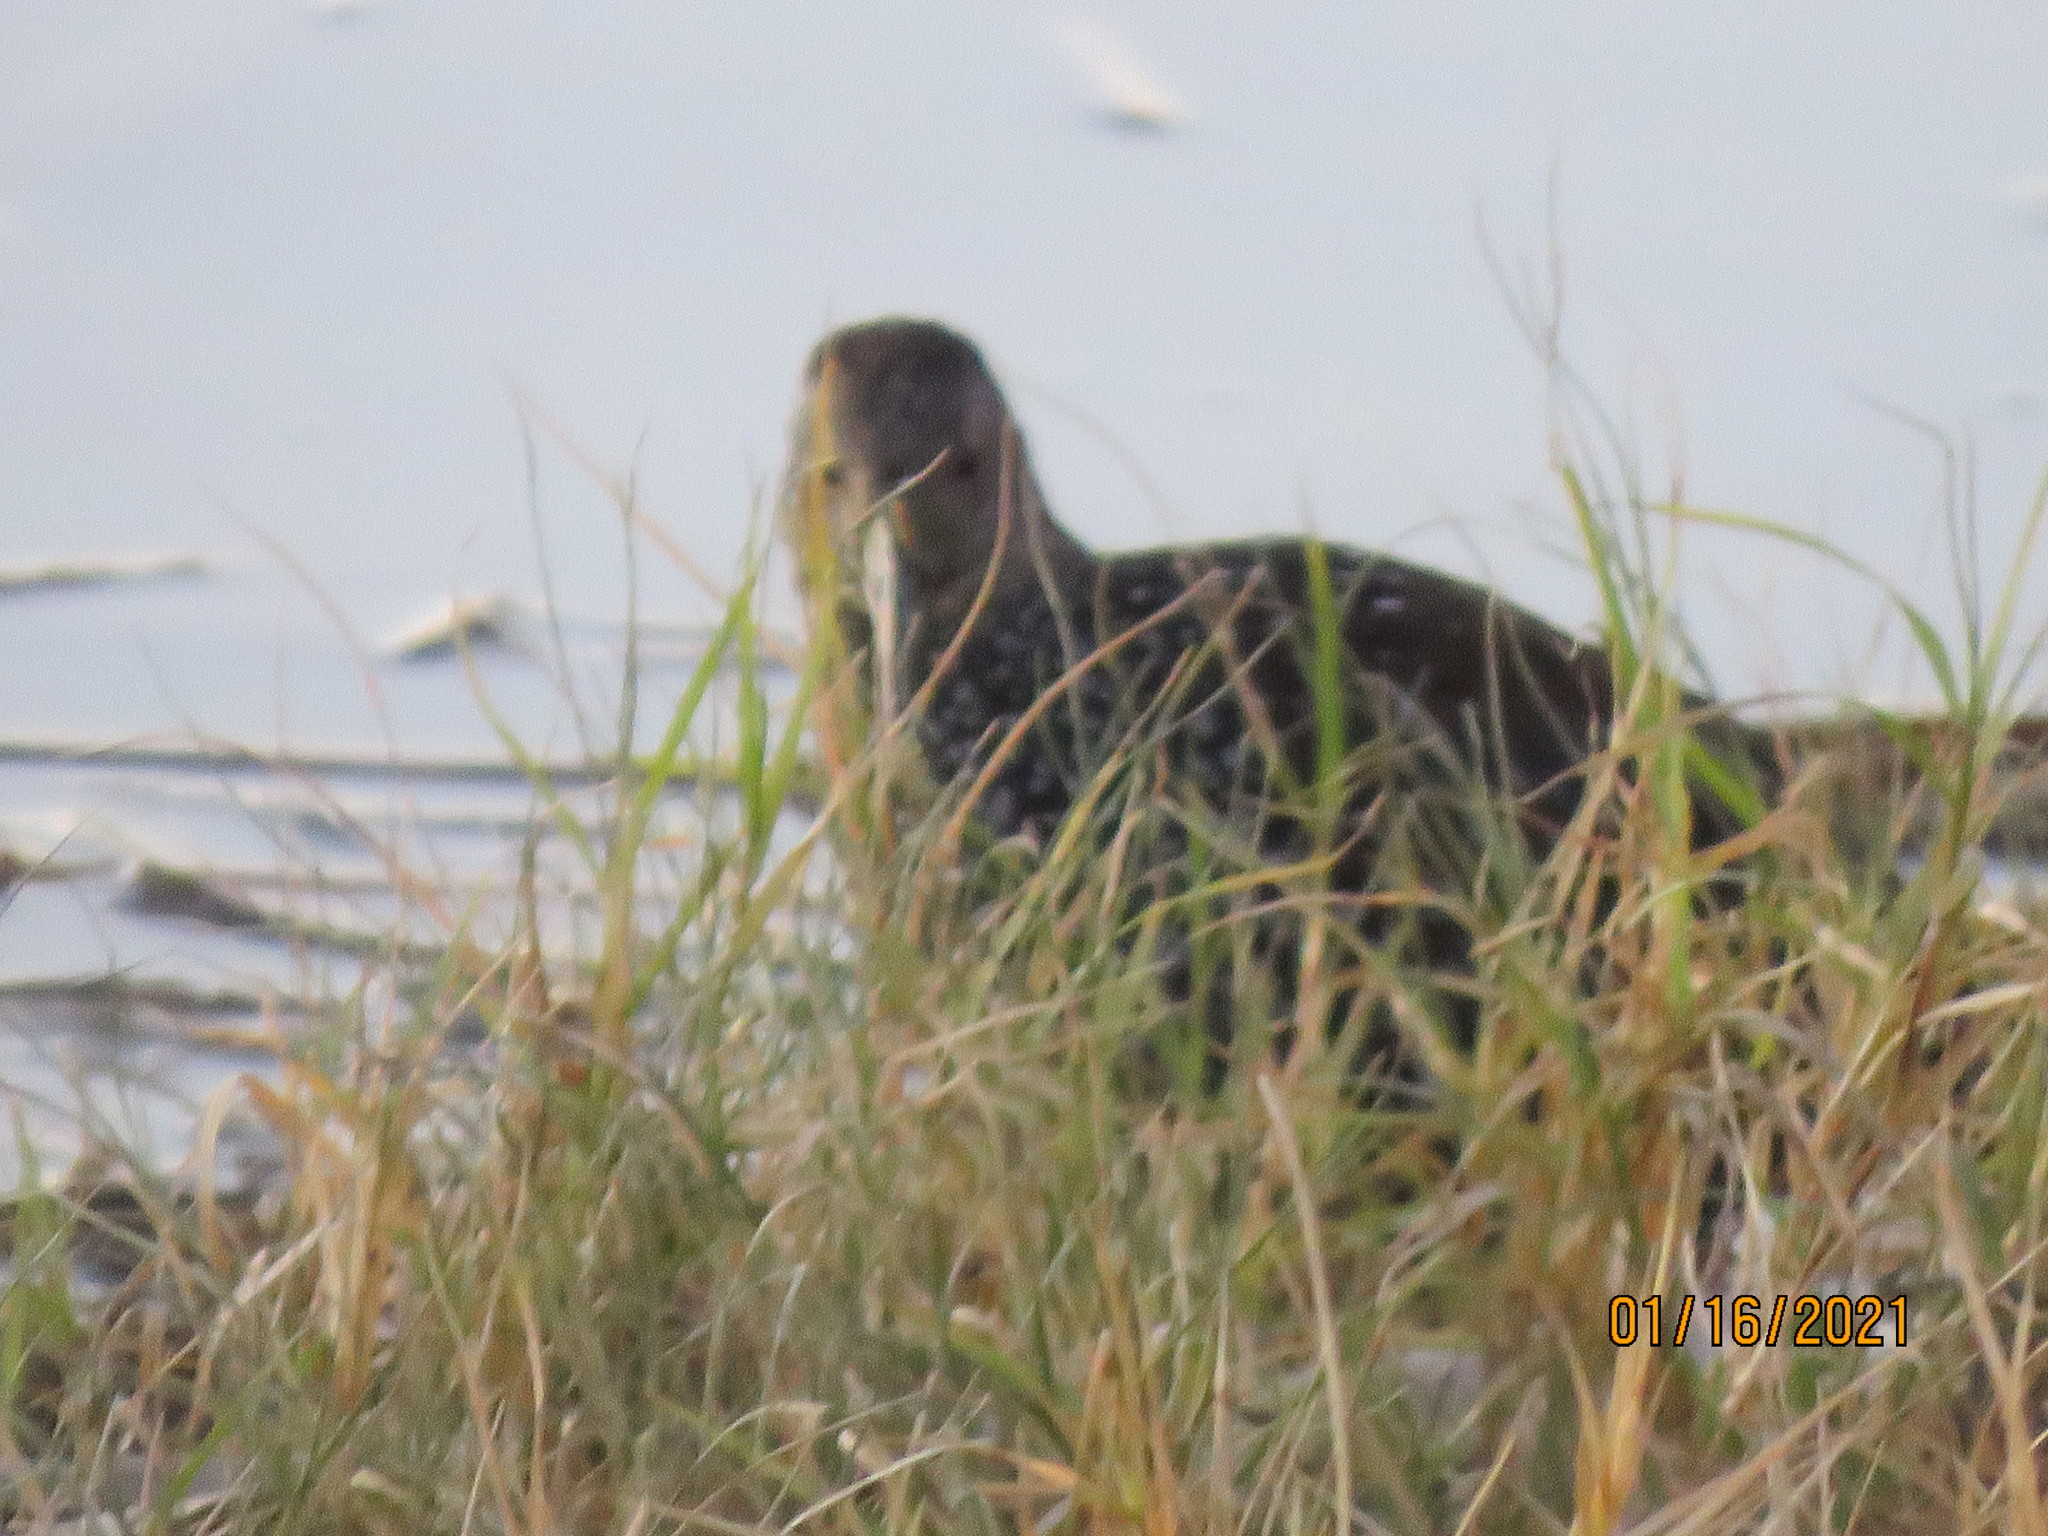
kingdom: Animalia
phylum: Chordata
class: Aves
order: Gruiformes
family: Rallidae
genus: Pardirallus
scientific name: Pardirallus maculatus
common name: Spotted rail
